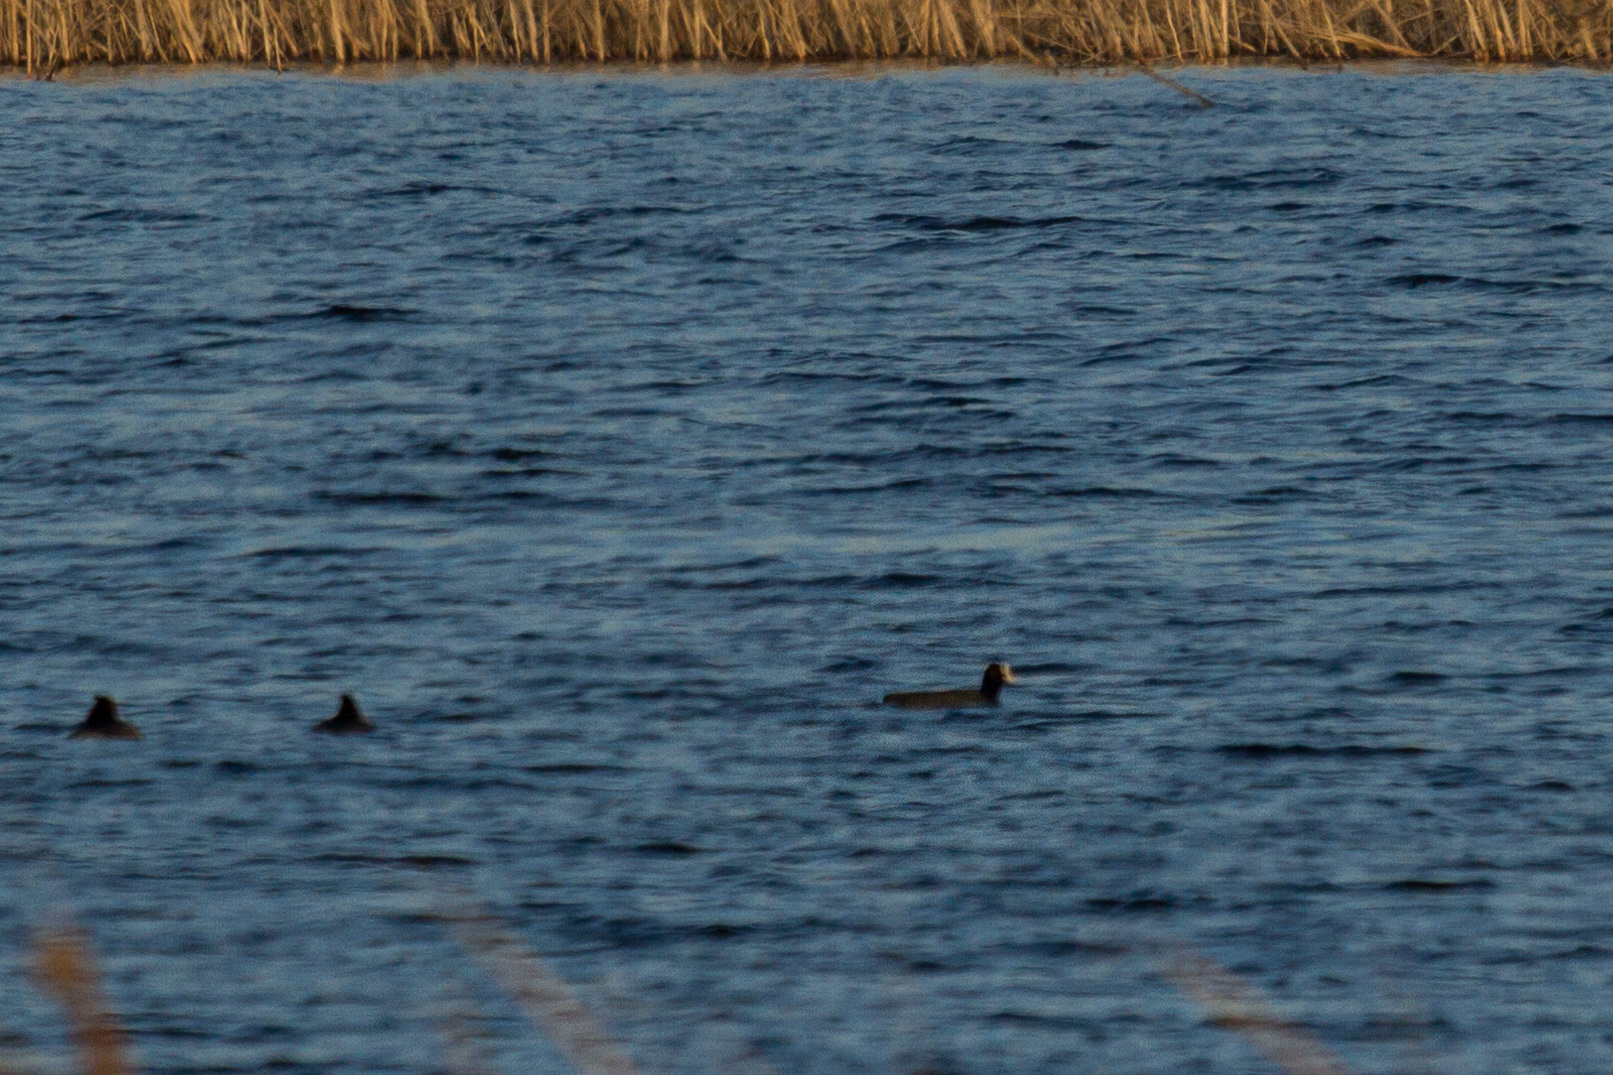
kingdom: Animalia
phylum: Chordata
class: Aves
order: Gruiformes
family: Rallidae
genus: Fulica
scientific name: Fulica atra
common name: Eurasian coot
